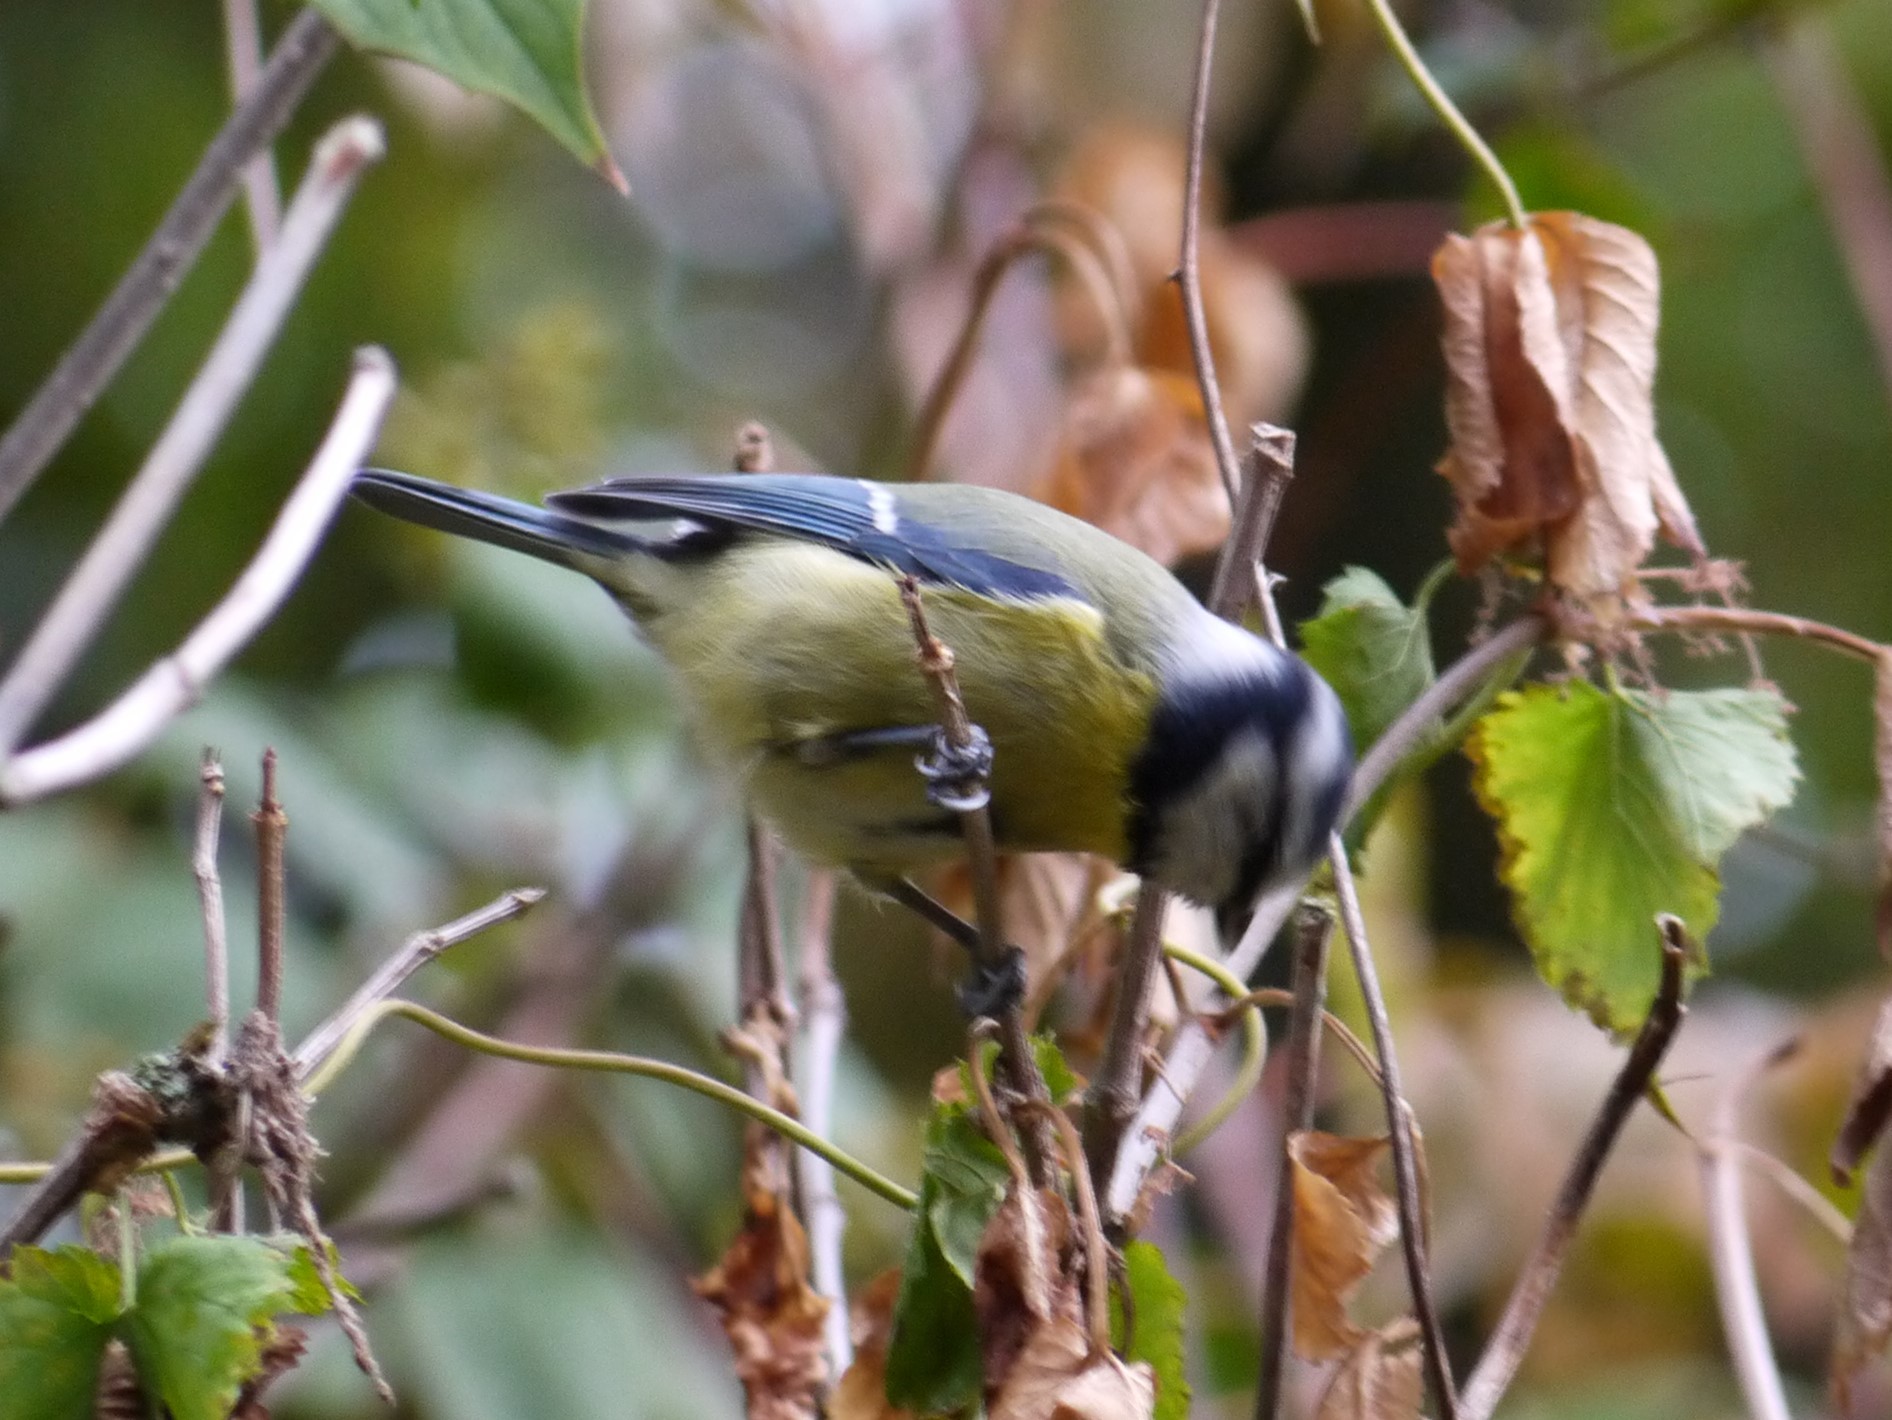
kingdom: Animalia
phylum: Chordata
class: Aves
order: Passeriformes
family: Paridae
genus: Cyanistes
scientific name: Cyanistes caeruleus
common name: Eurasian blue tit
